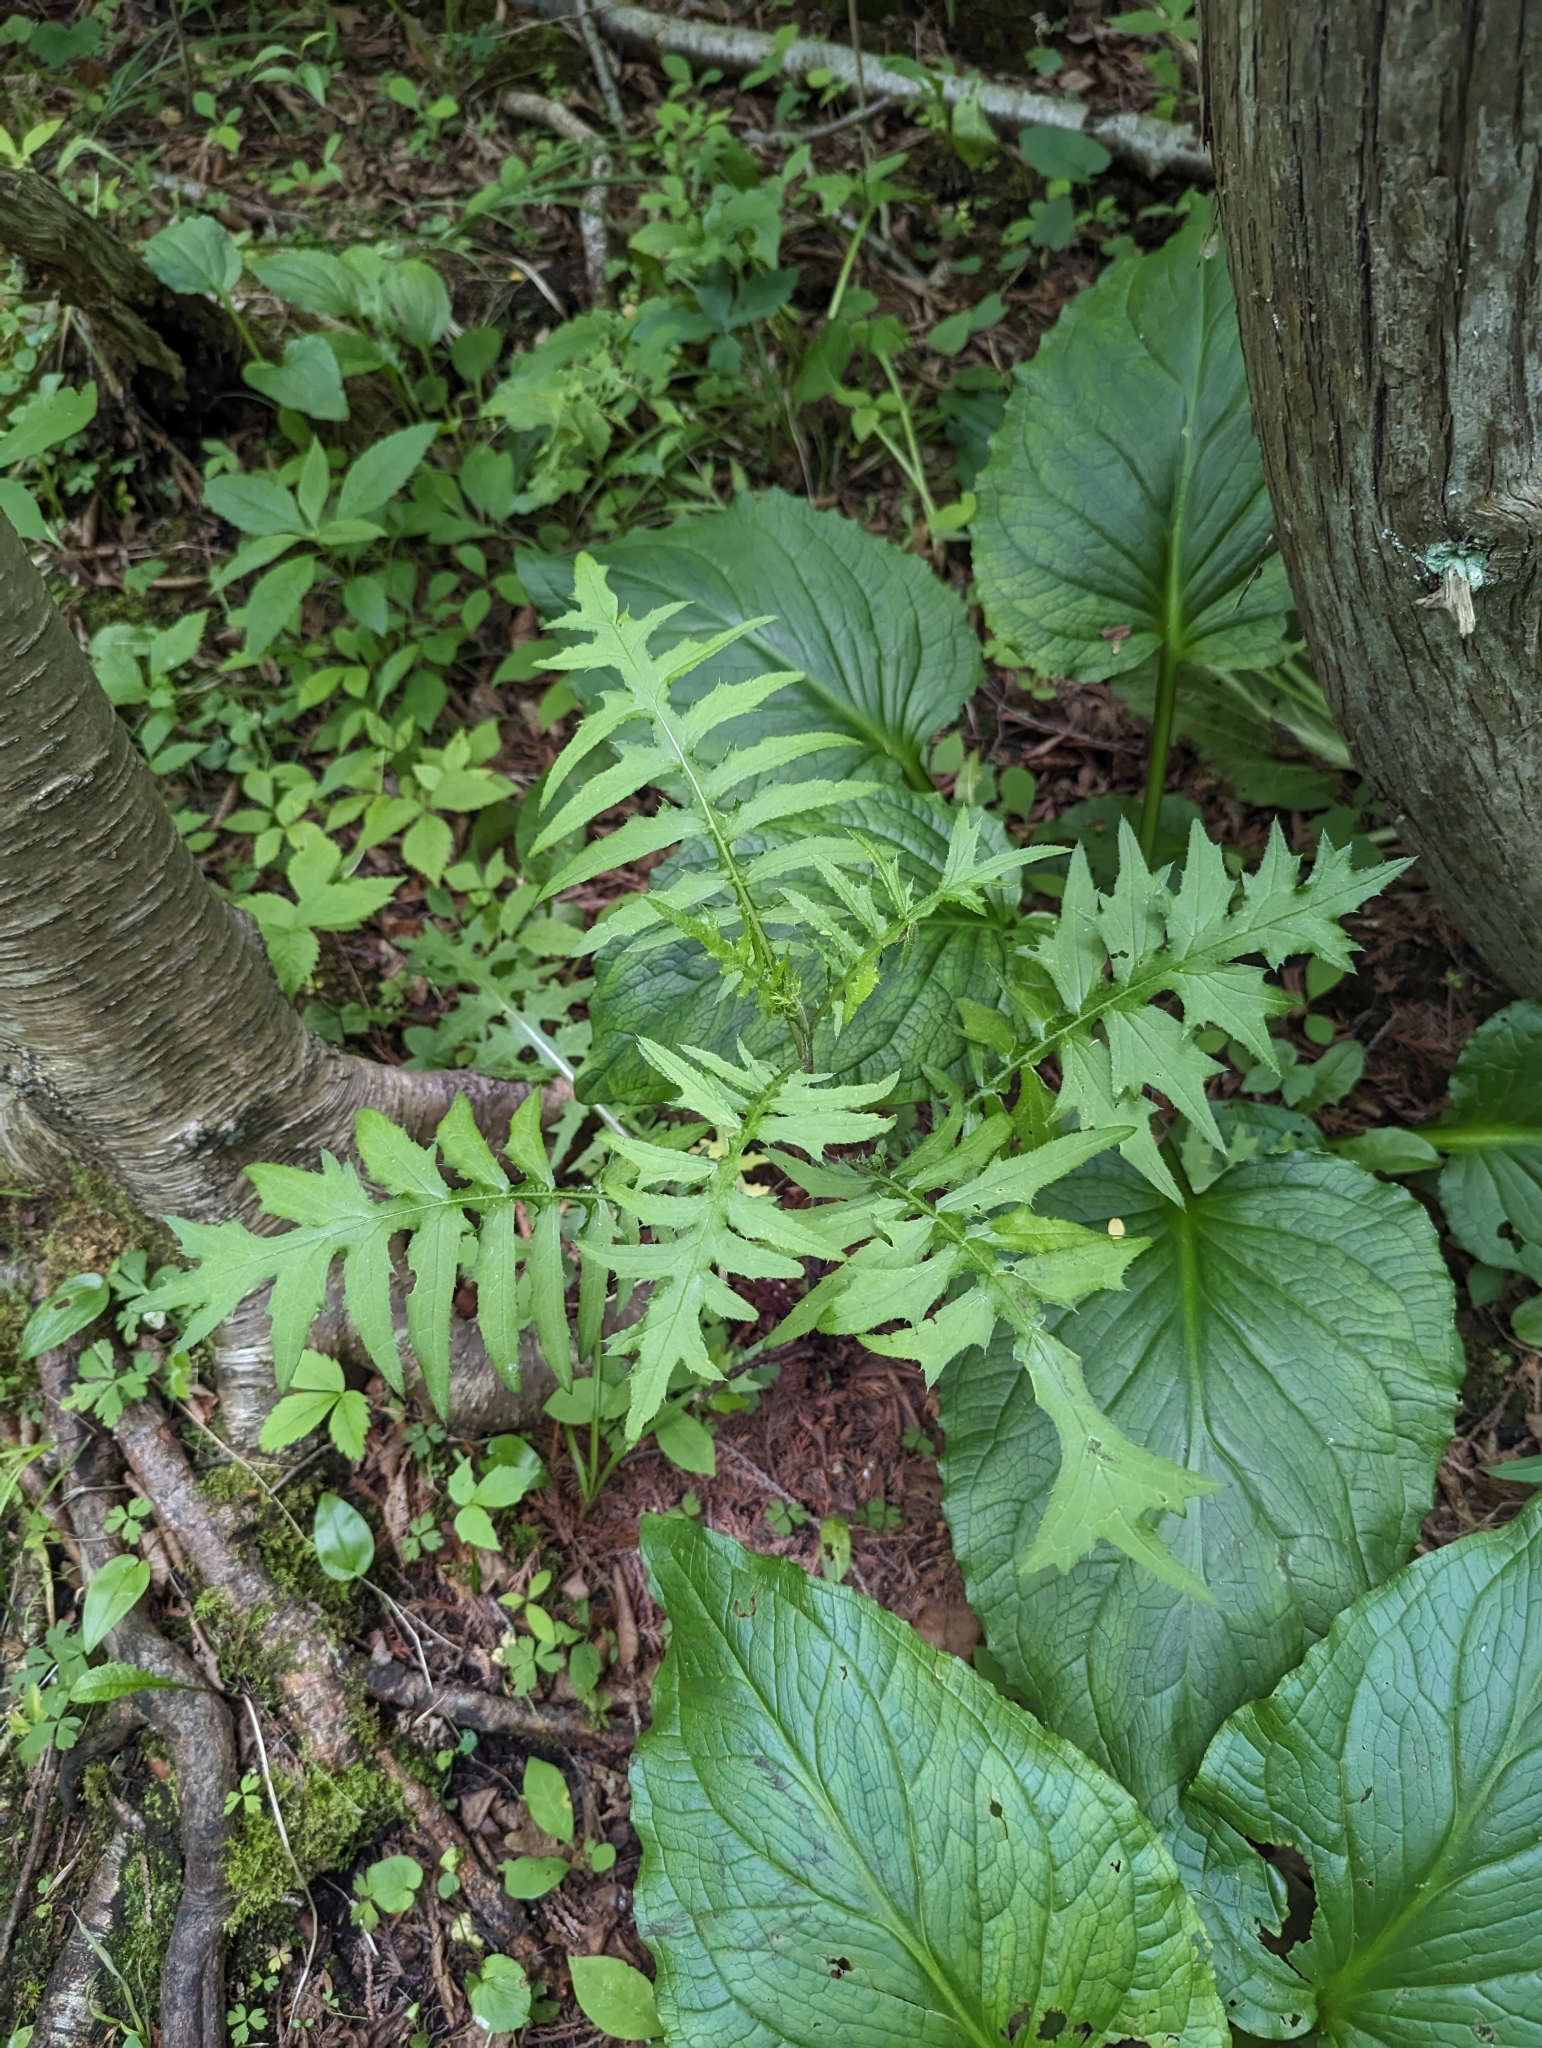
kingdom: Plantae
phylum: Tracheophyta
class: Magnoliopsida
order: Asterales
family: Asteraceae
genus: Cirsium
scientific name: Cirsium muticum
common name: Dunce-nettle
